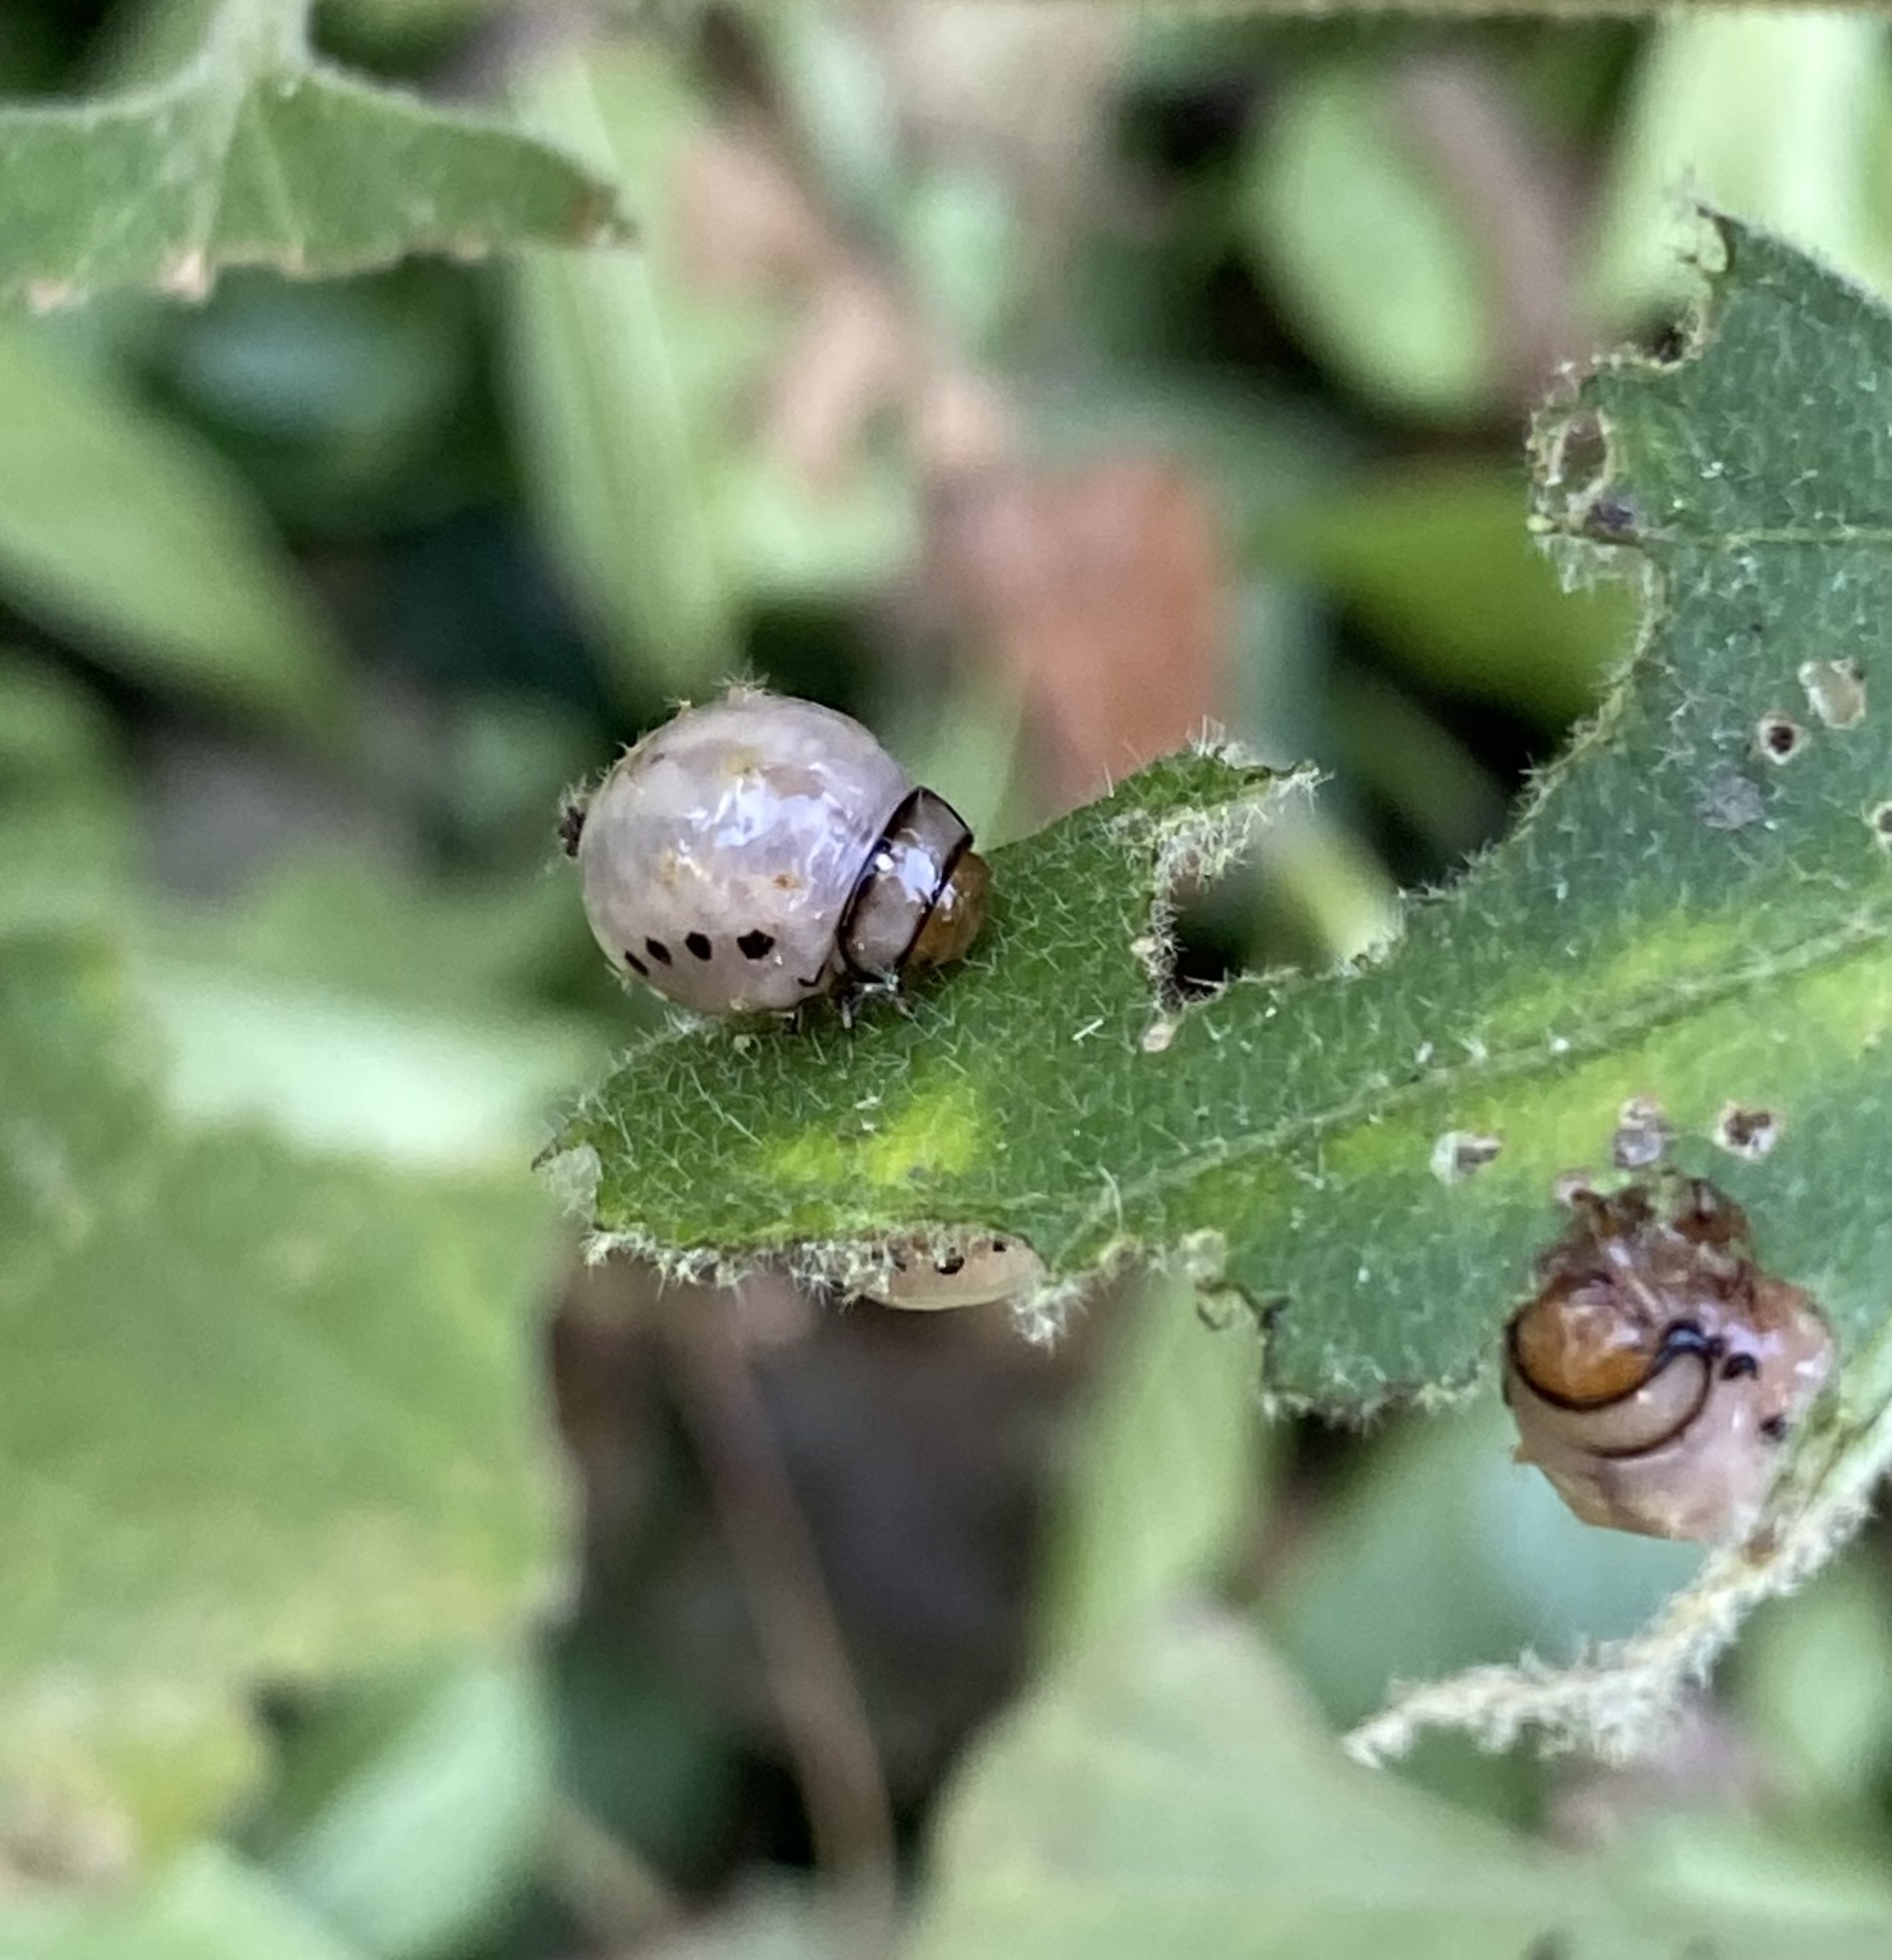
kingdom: Animalia
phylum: Arthropoda
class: Insecta
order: Coleoptera
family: Chrysomelidae
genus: Leptinotarsa
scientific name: Leptinotarsa juncta
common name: False potato beetle
